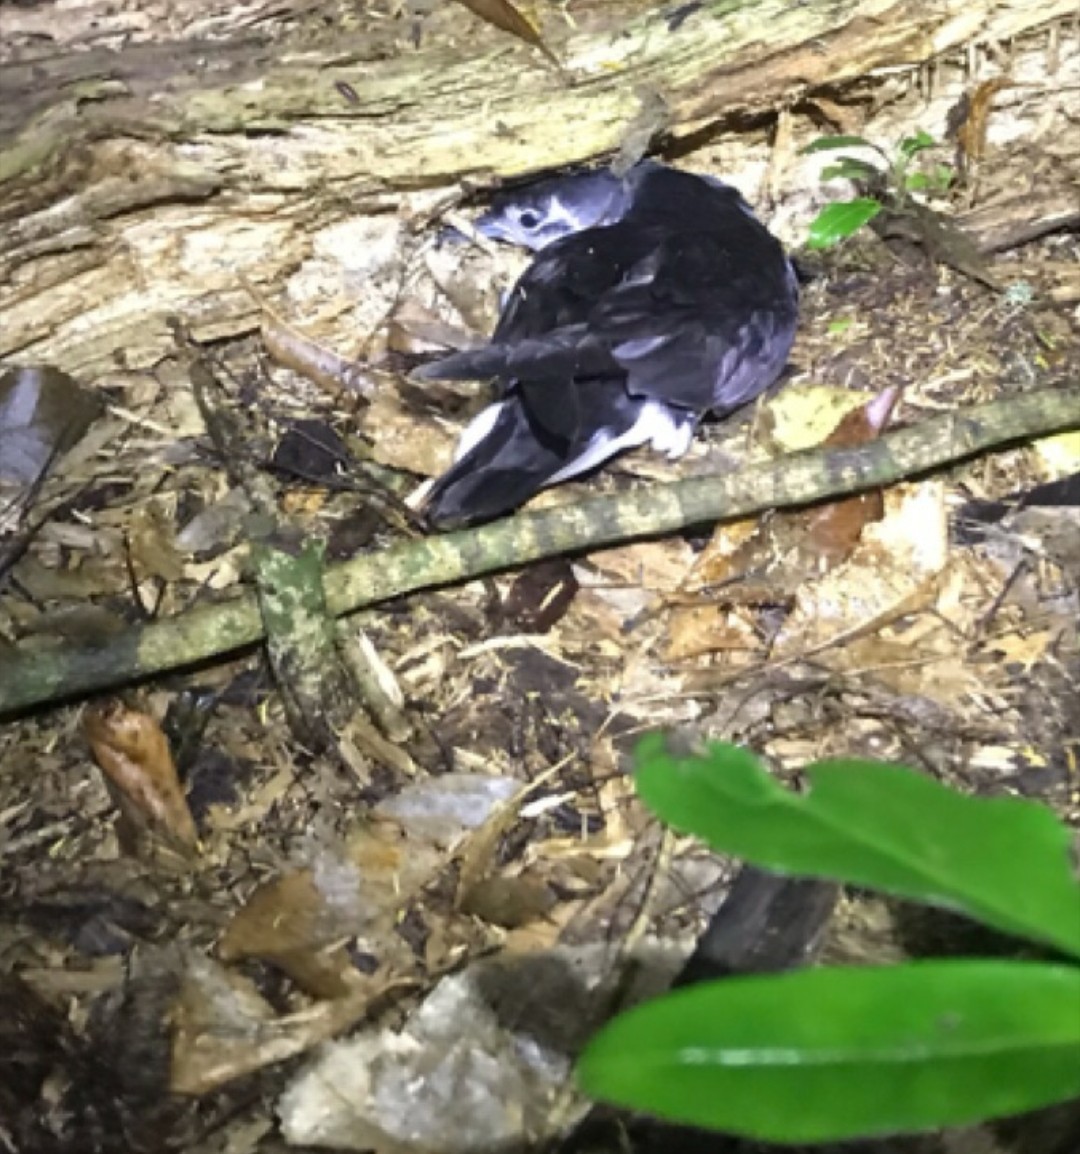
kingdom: Animalia
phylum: Chordata
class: Aves
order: Procellariiformes
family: Procellariidae
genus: Puffinus
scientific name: Puffinus assimilis
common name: Little shearwater
